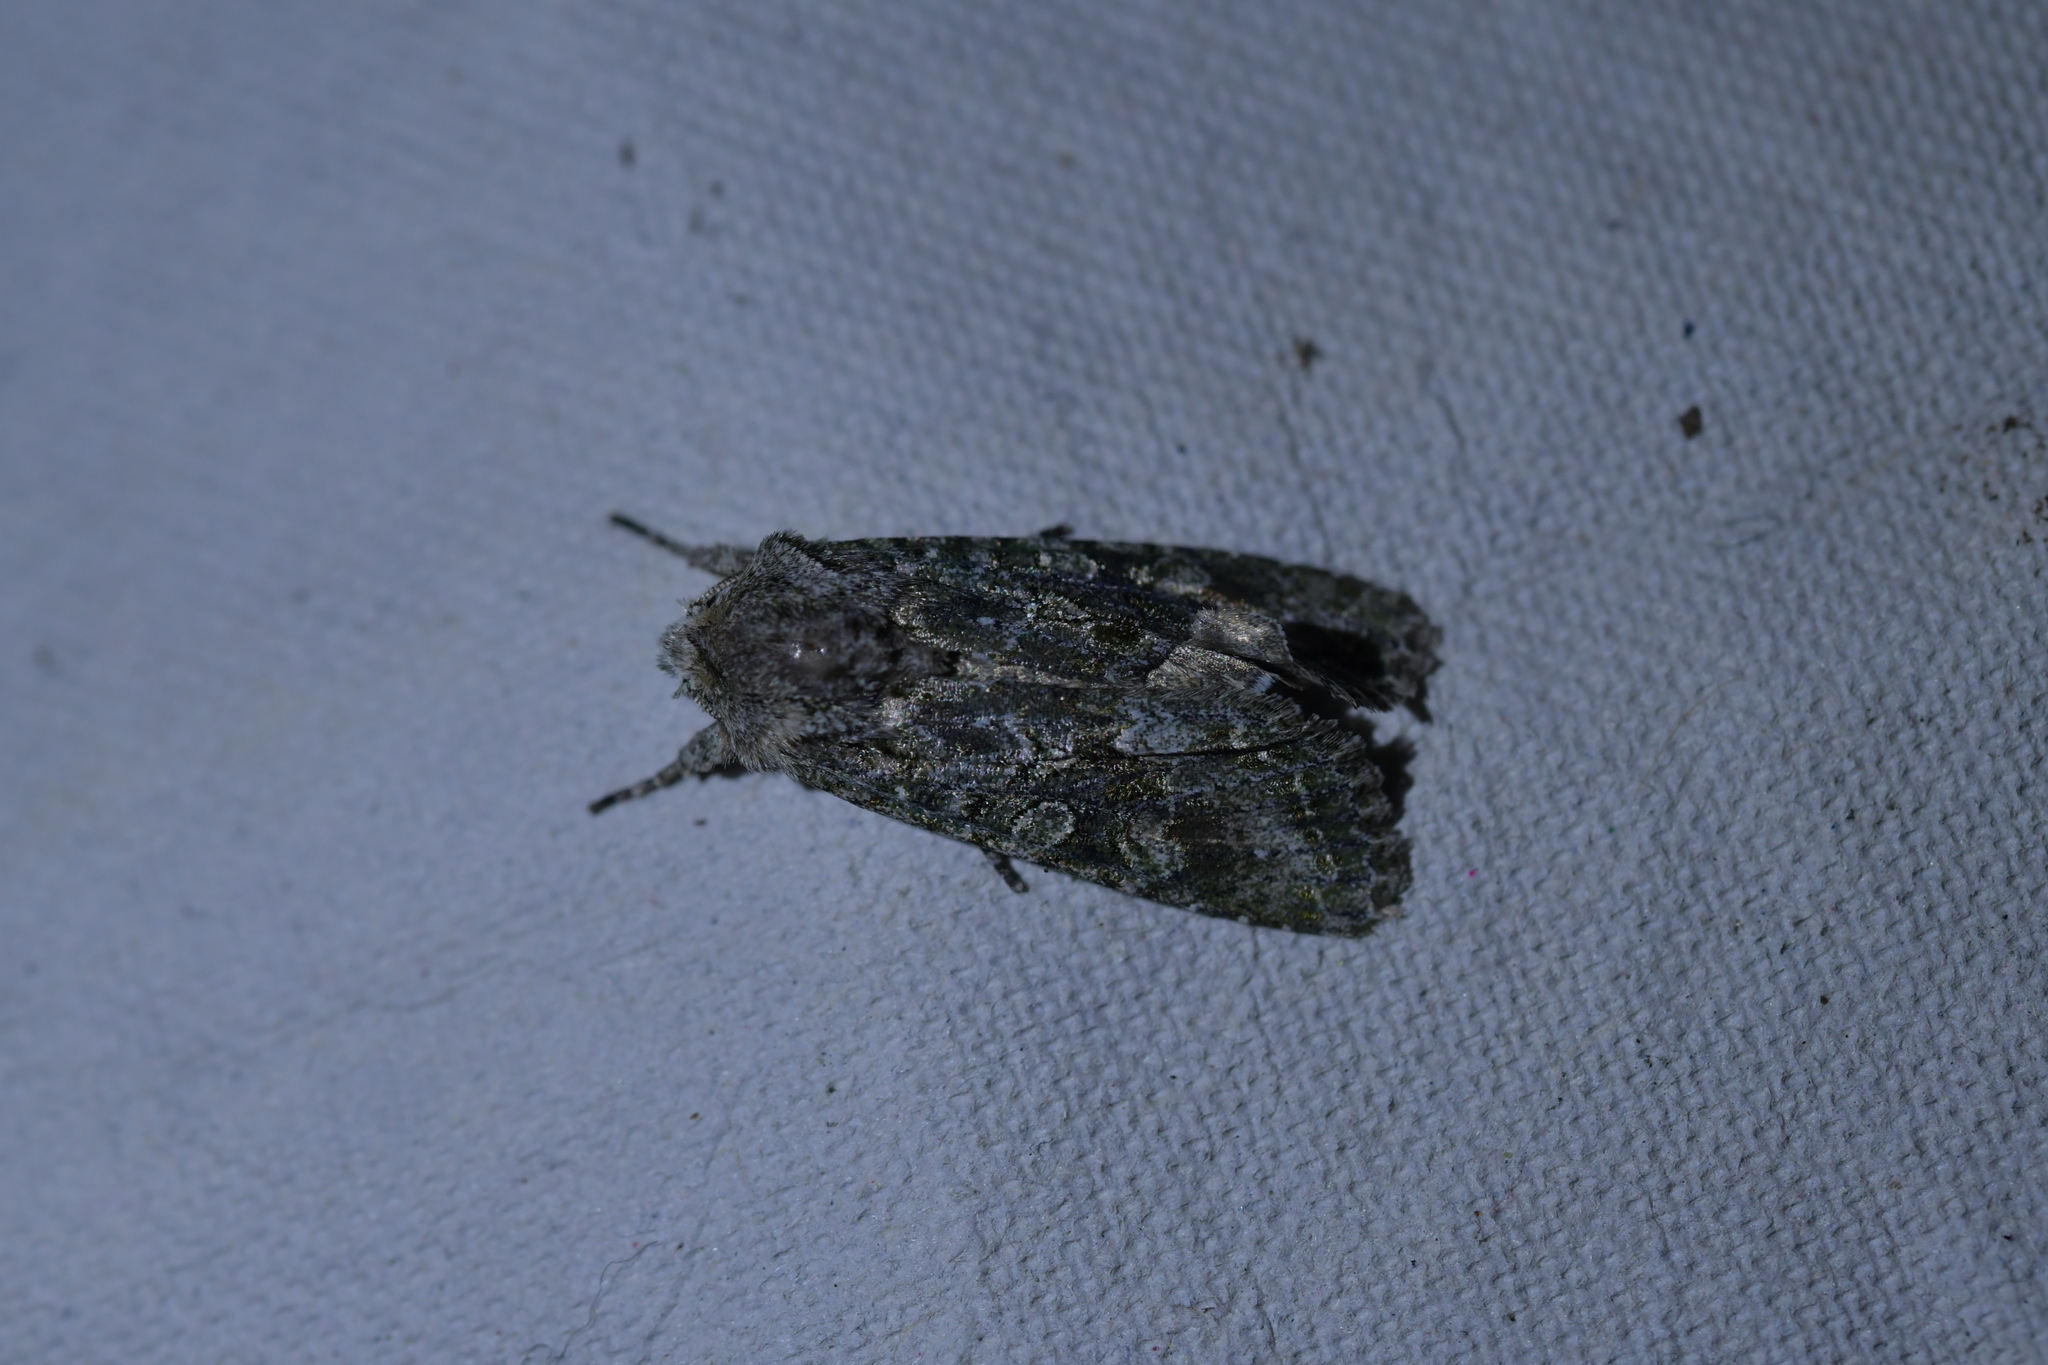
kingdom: Animalia
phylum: Arthropoda
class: Insecta
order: Lepidoptera
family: Noctuidae
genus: Ichneutica
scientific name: Ichneutica mutans
